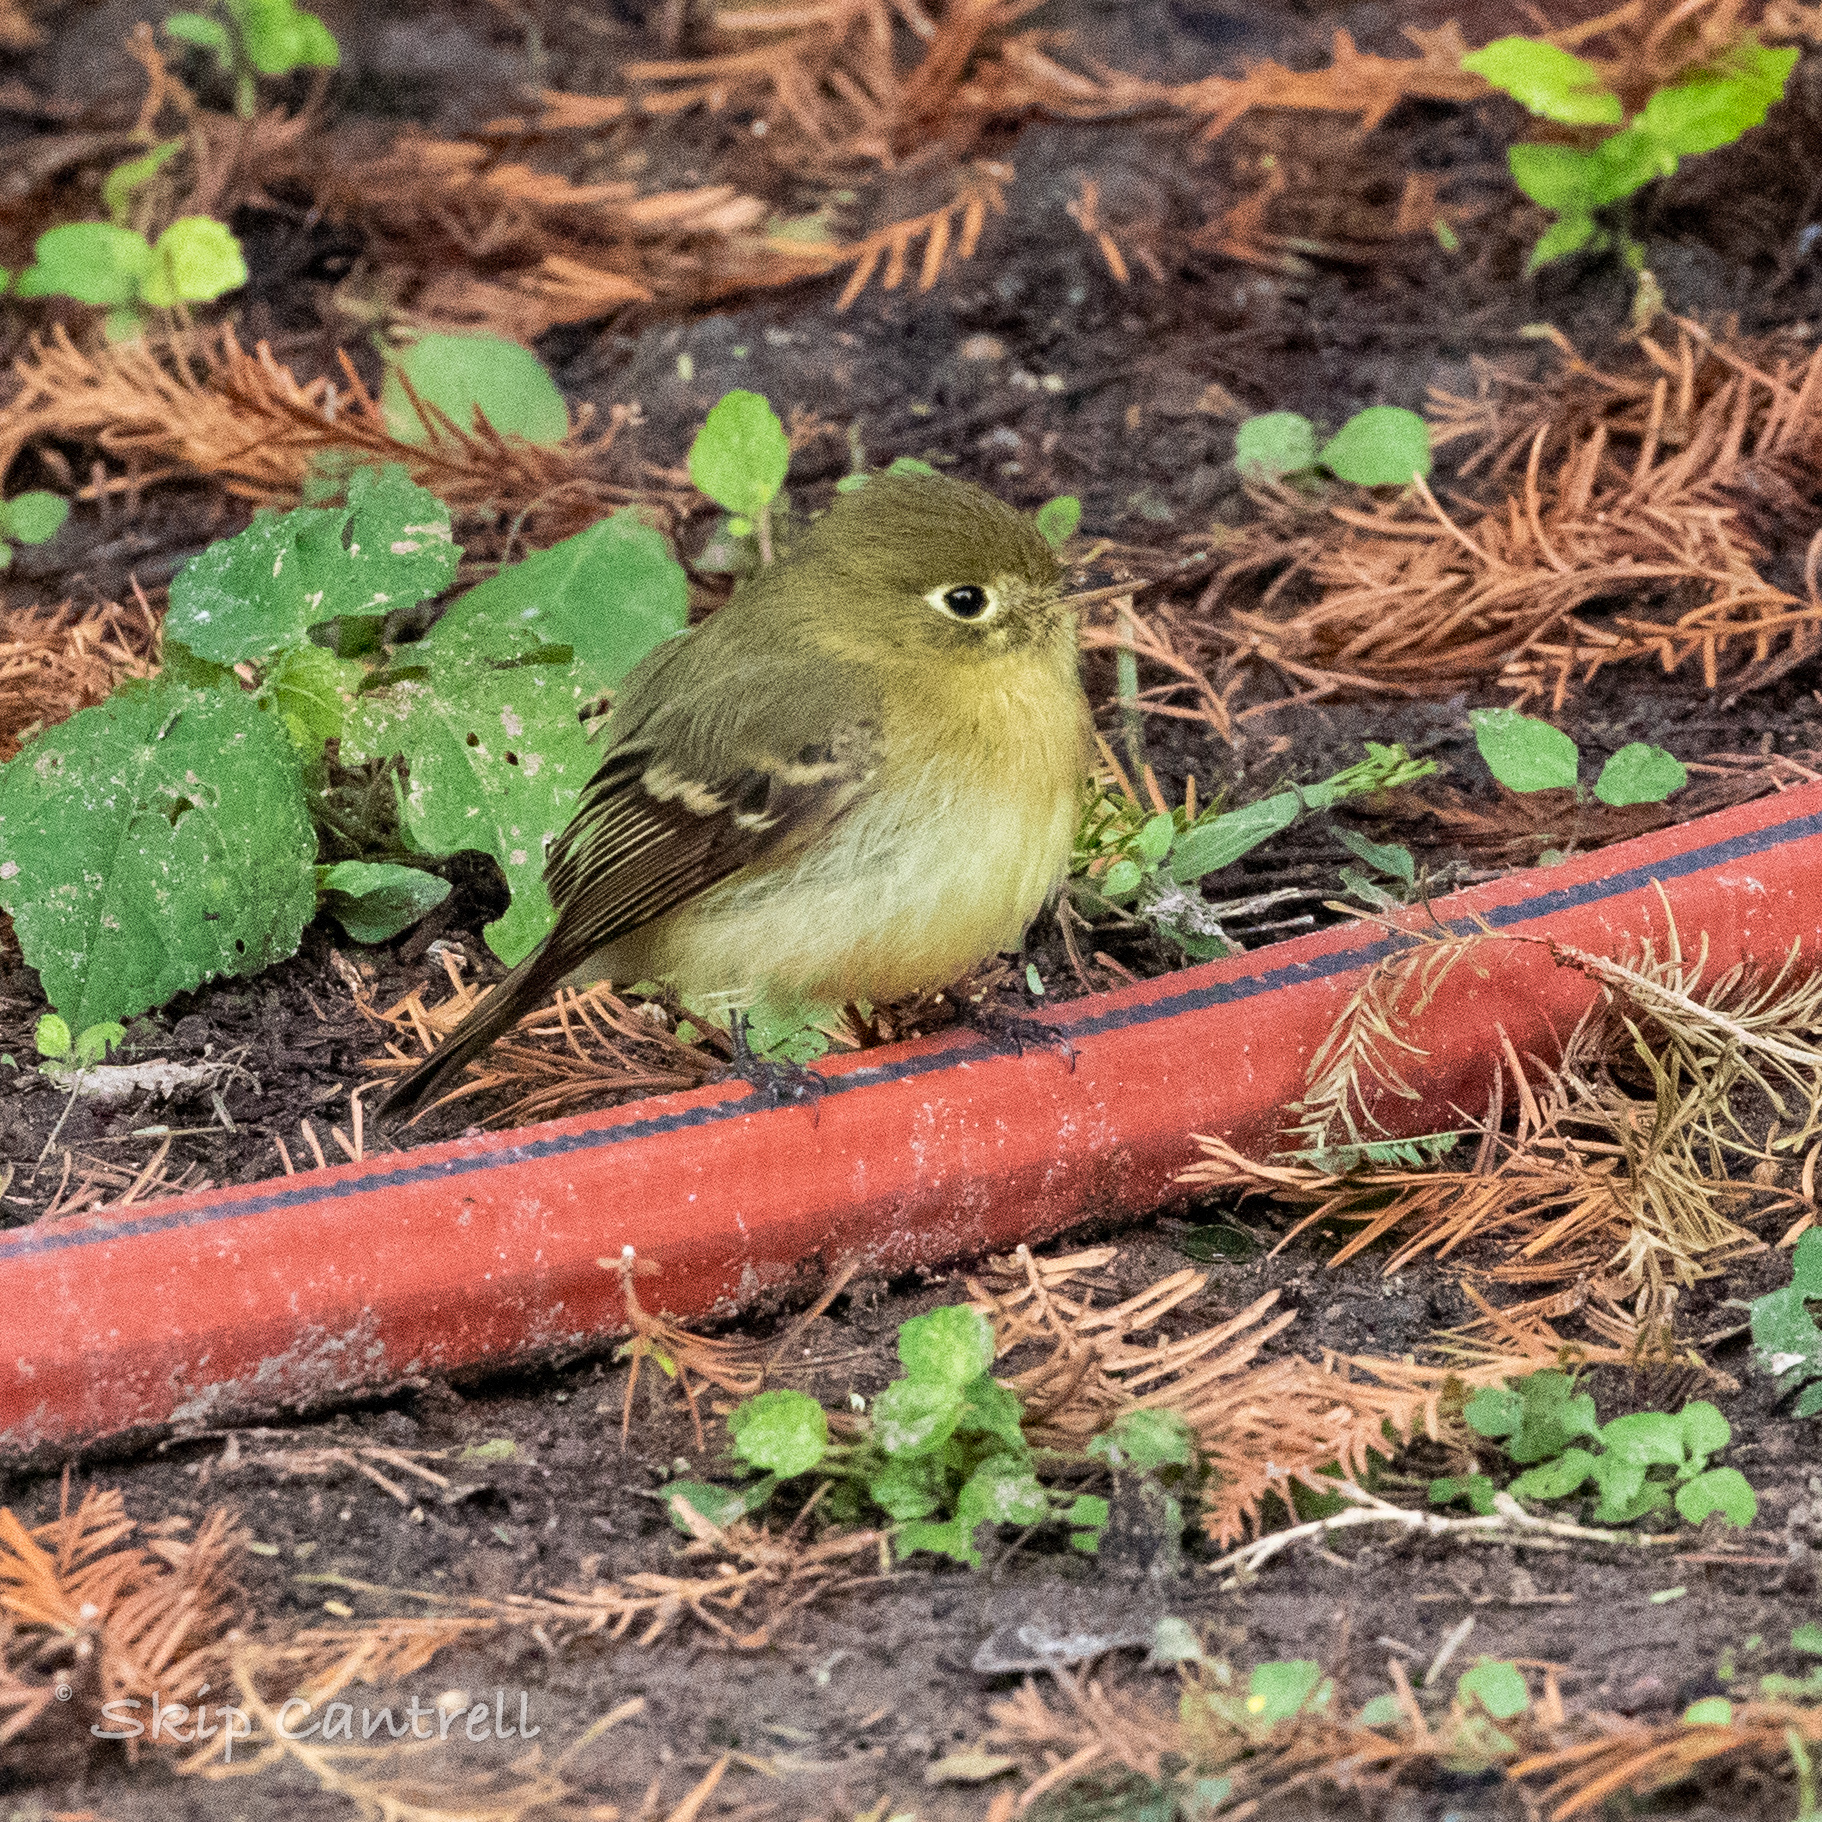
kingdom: Animalia
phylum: Chordata
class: Aves
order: Passeriformes
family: Tyrannidae
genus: Empidonax
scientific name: Empidonax difficilis
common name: Pacific-slope flycatcher
